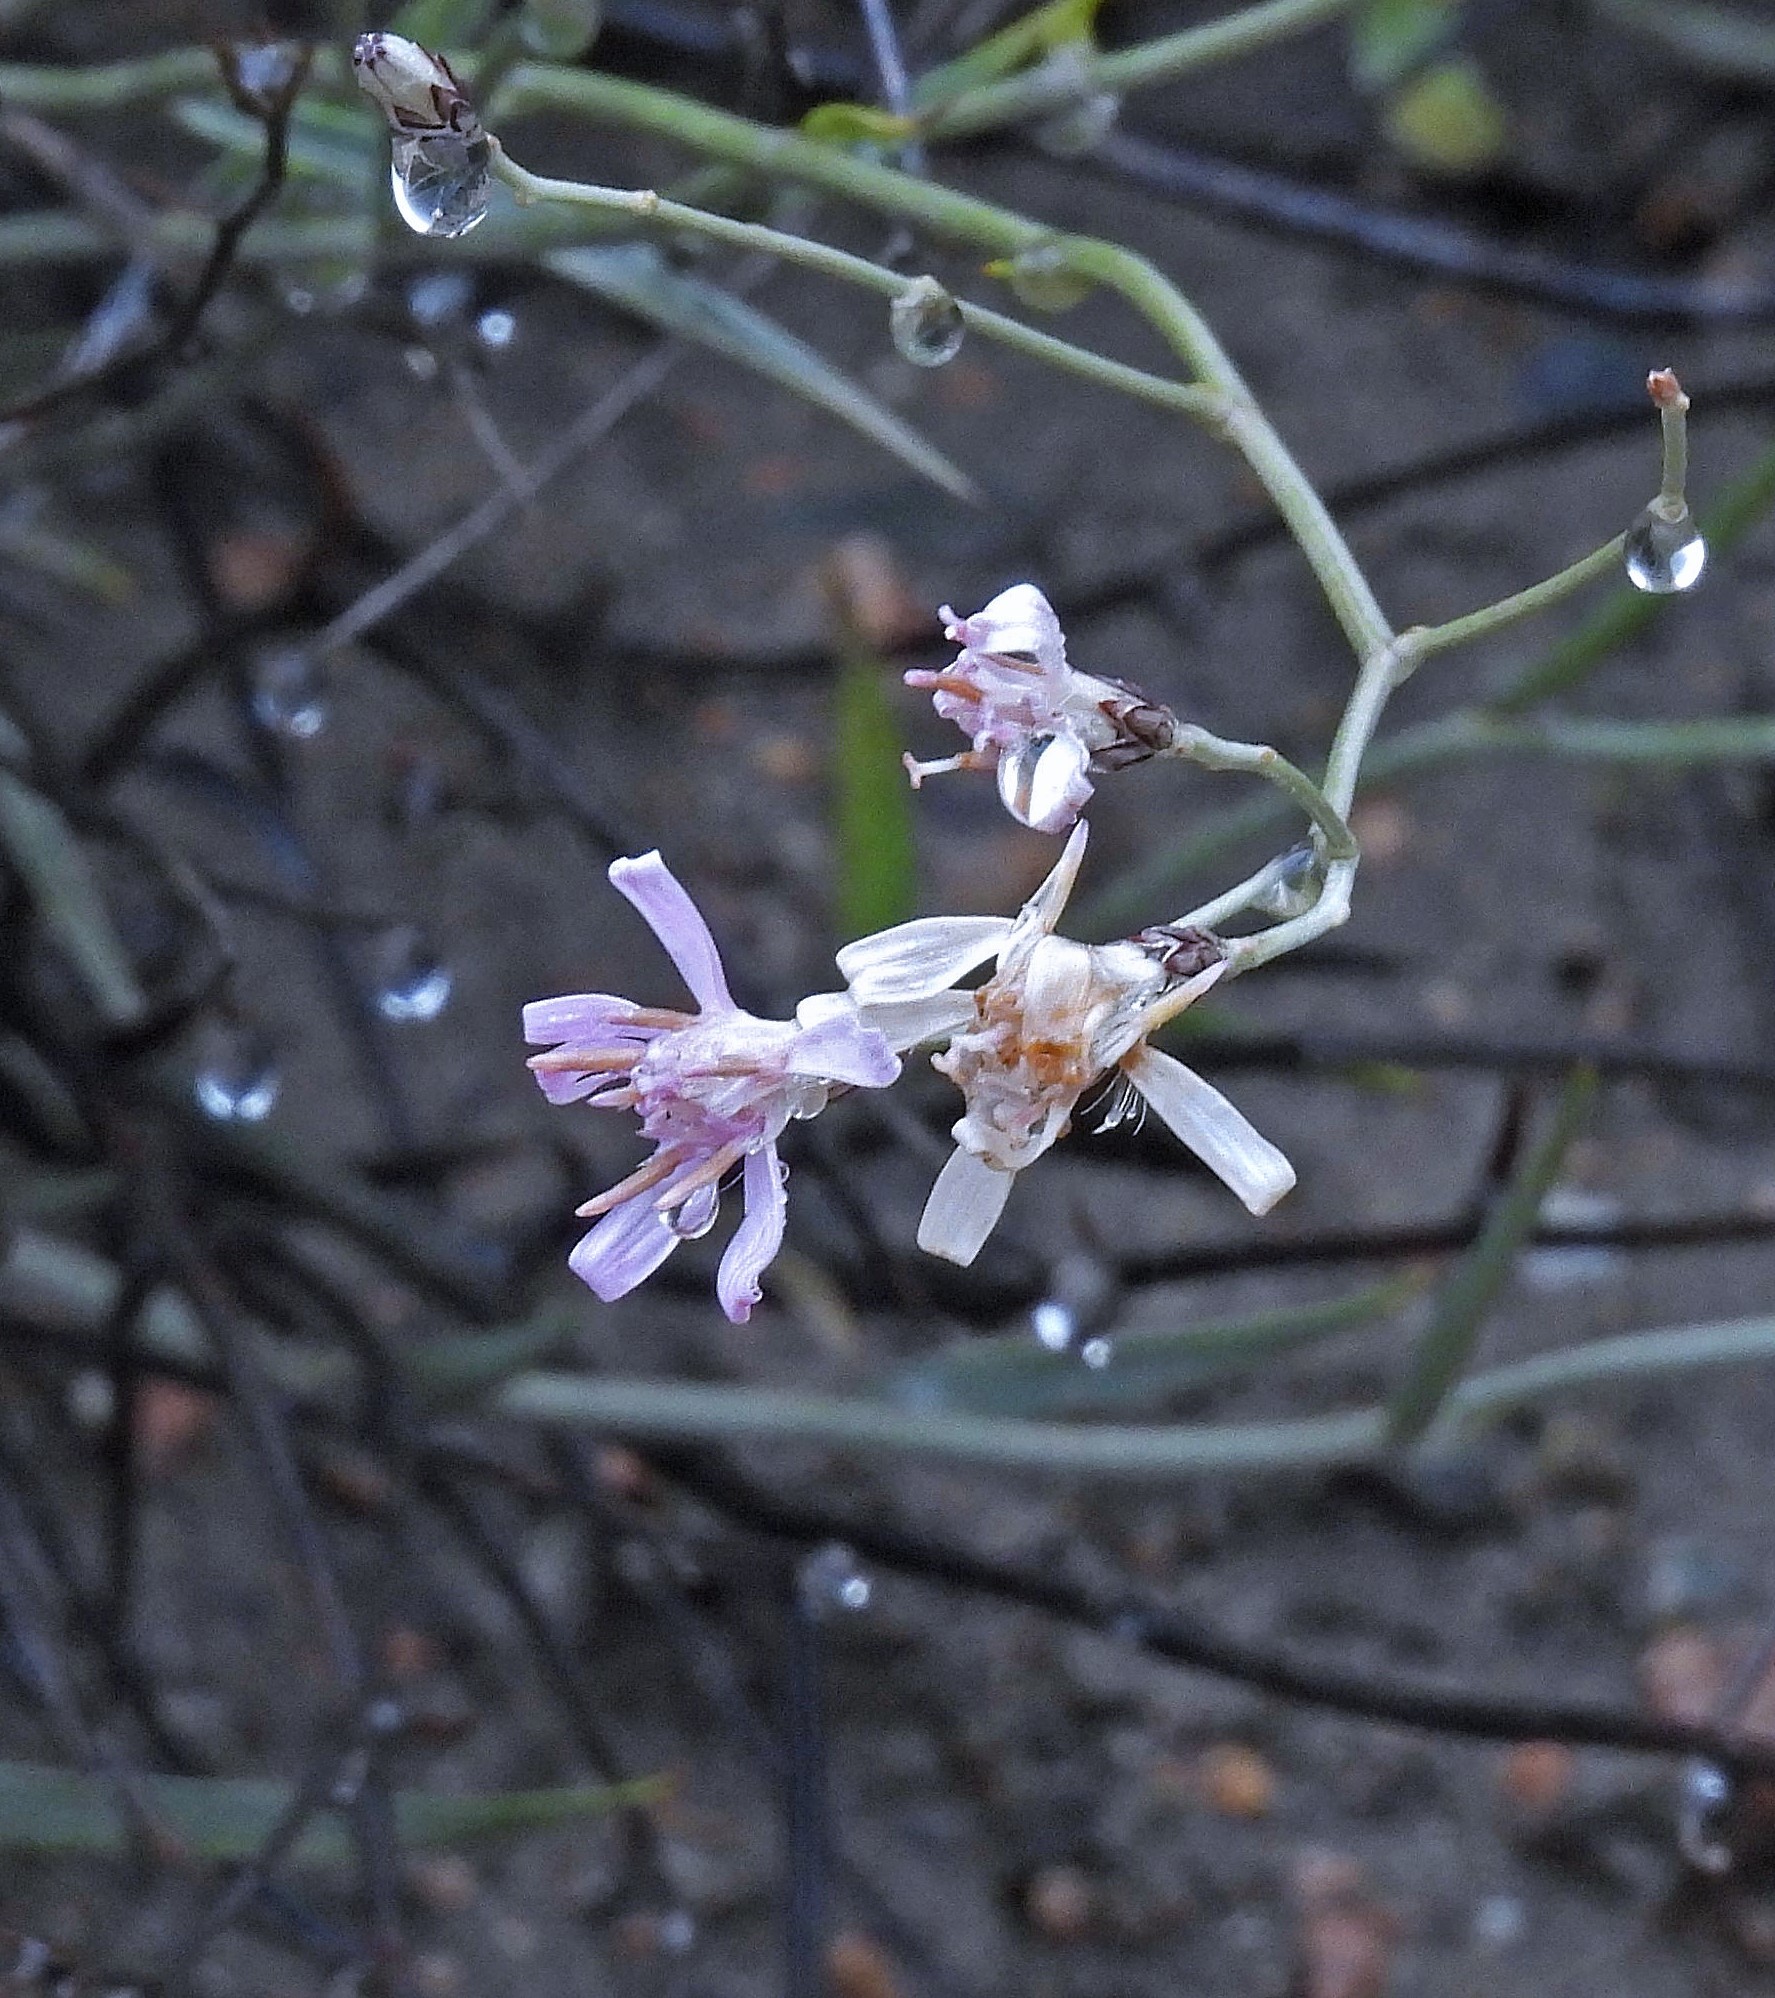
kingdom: Plantae
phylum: Tracheophyta
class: Magnoliopsida
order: Asterales
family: Asteraceae
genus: Hyalis
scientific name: Hyalis argentea
